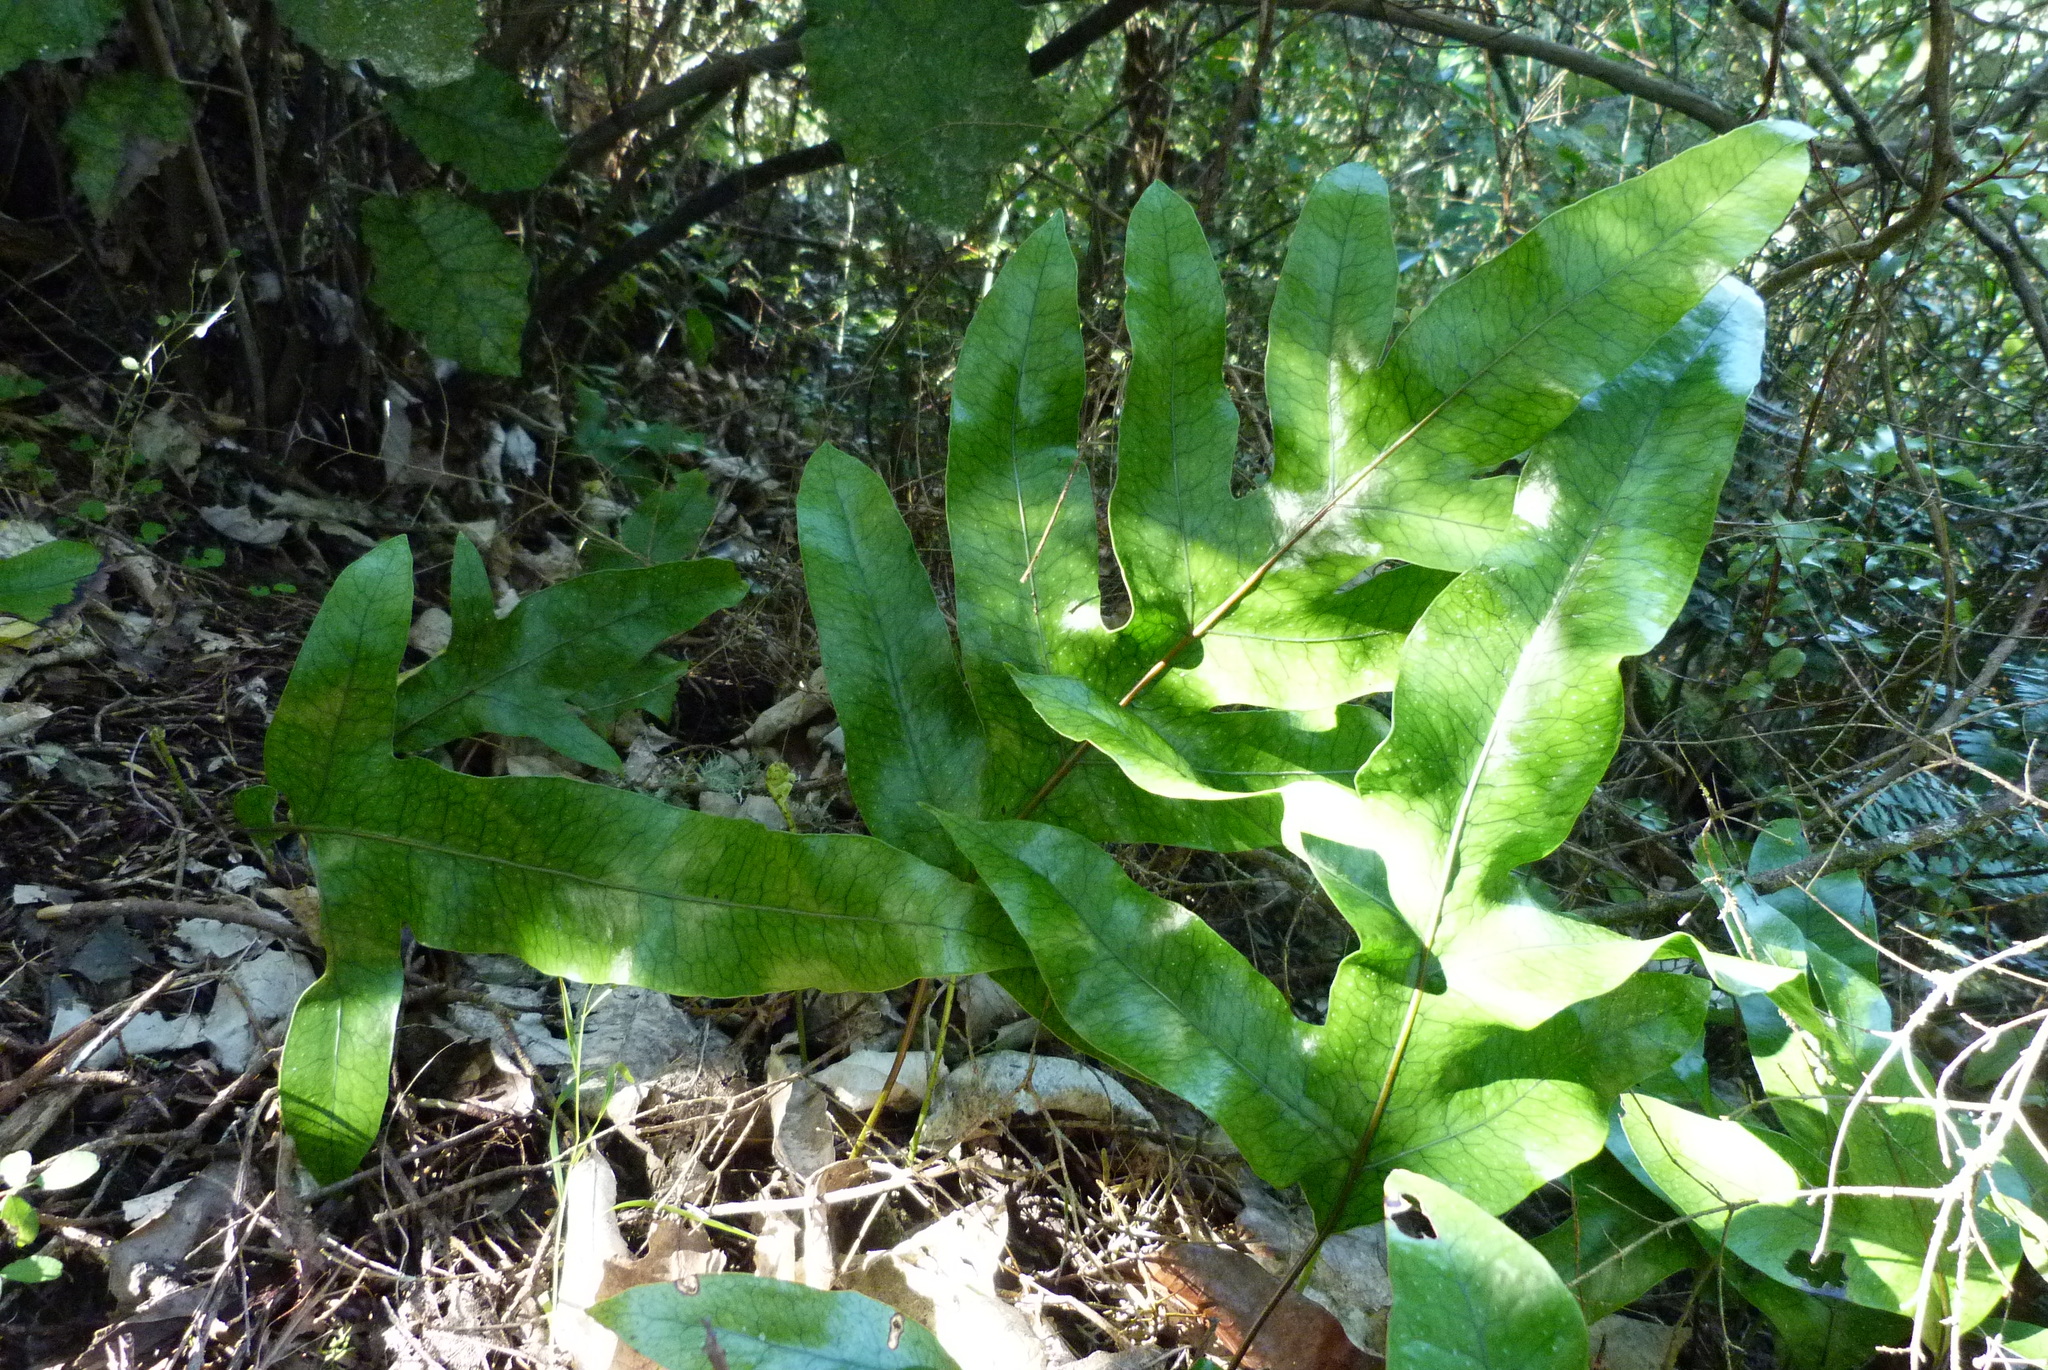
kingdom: Plantae
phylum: Tracheophyta
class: Polypodiopsida
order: Polypodiales
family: Polypodiaceae
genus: Lecanopteris
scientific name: Lecanopteris pustulata
